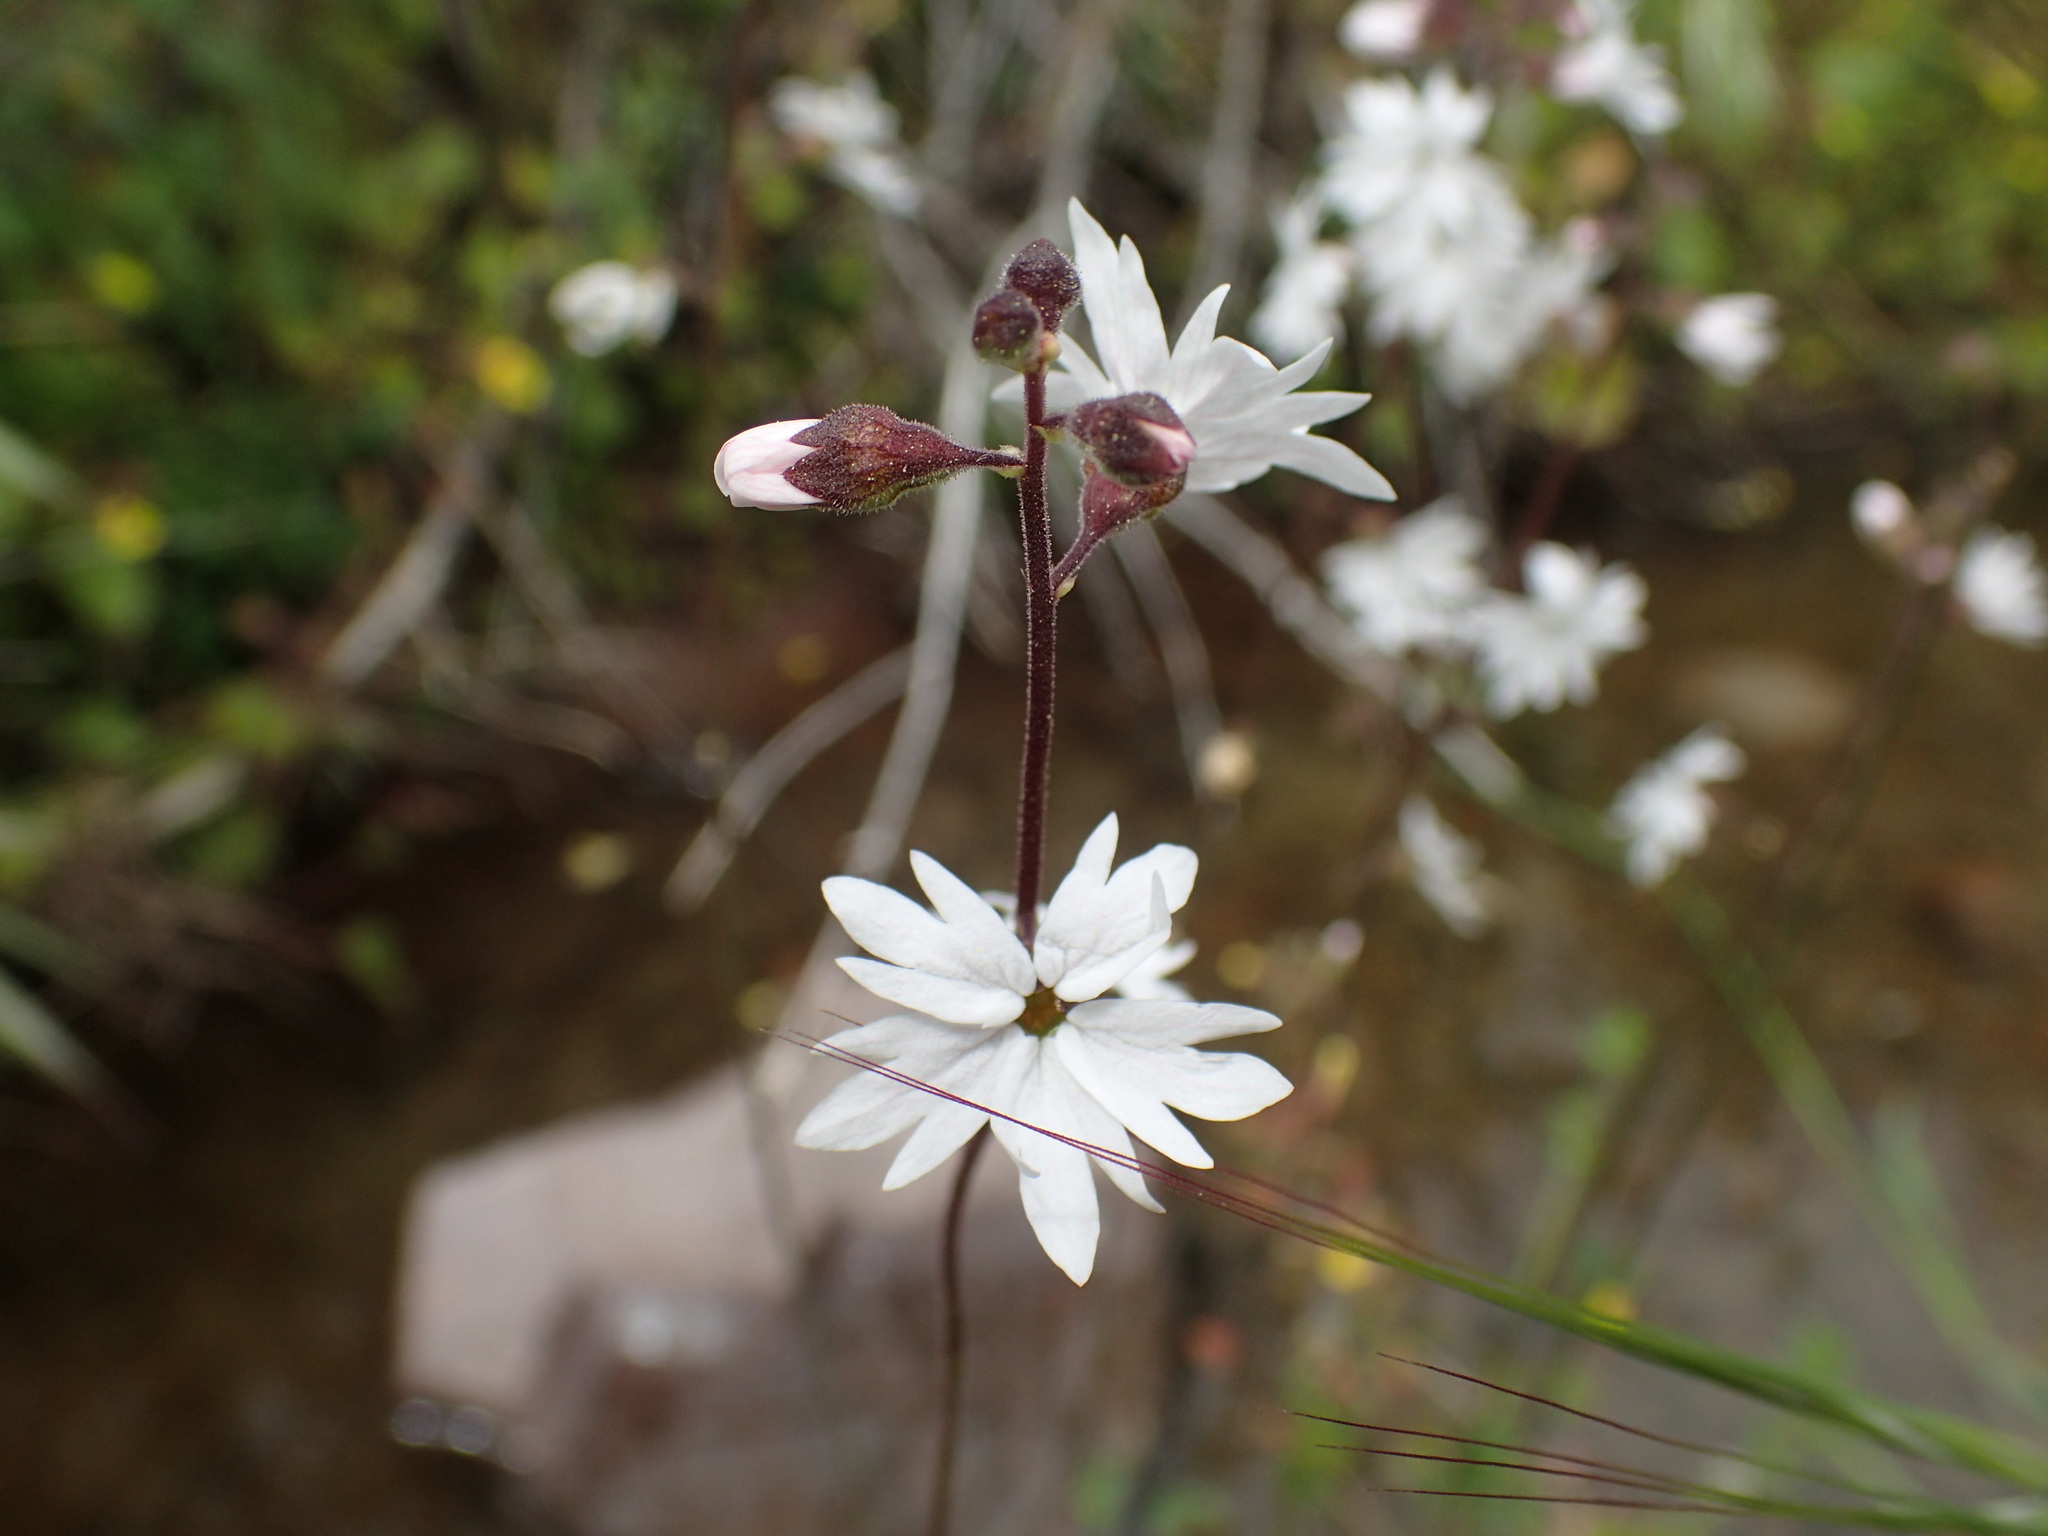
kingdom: Plantae
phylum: Tracheophyta
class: Magnoliopsida
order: Saxifragales
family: Saxifragaceae
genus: Lithophragma
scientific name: Lithophragma affine
